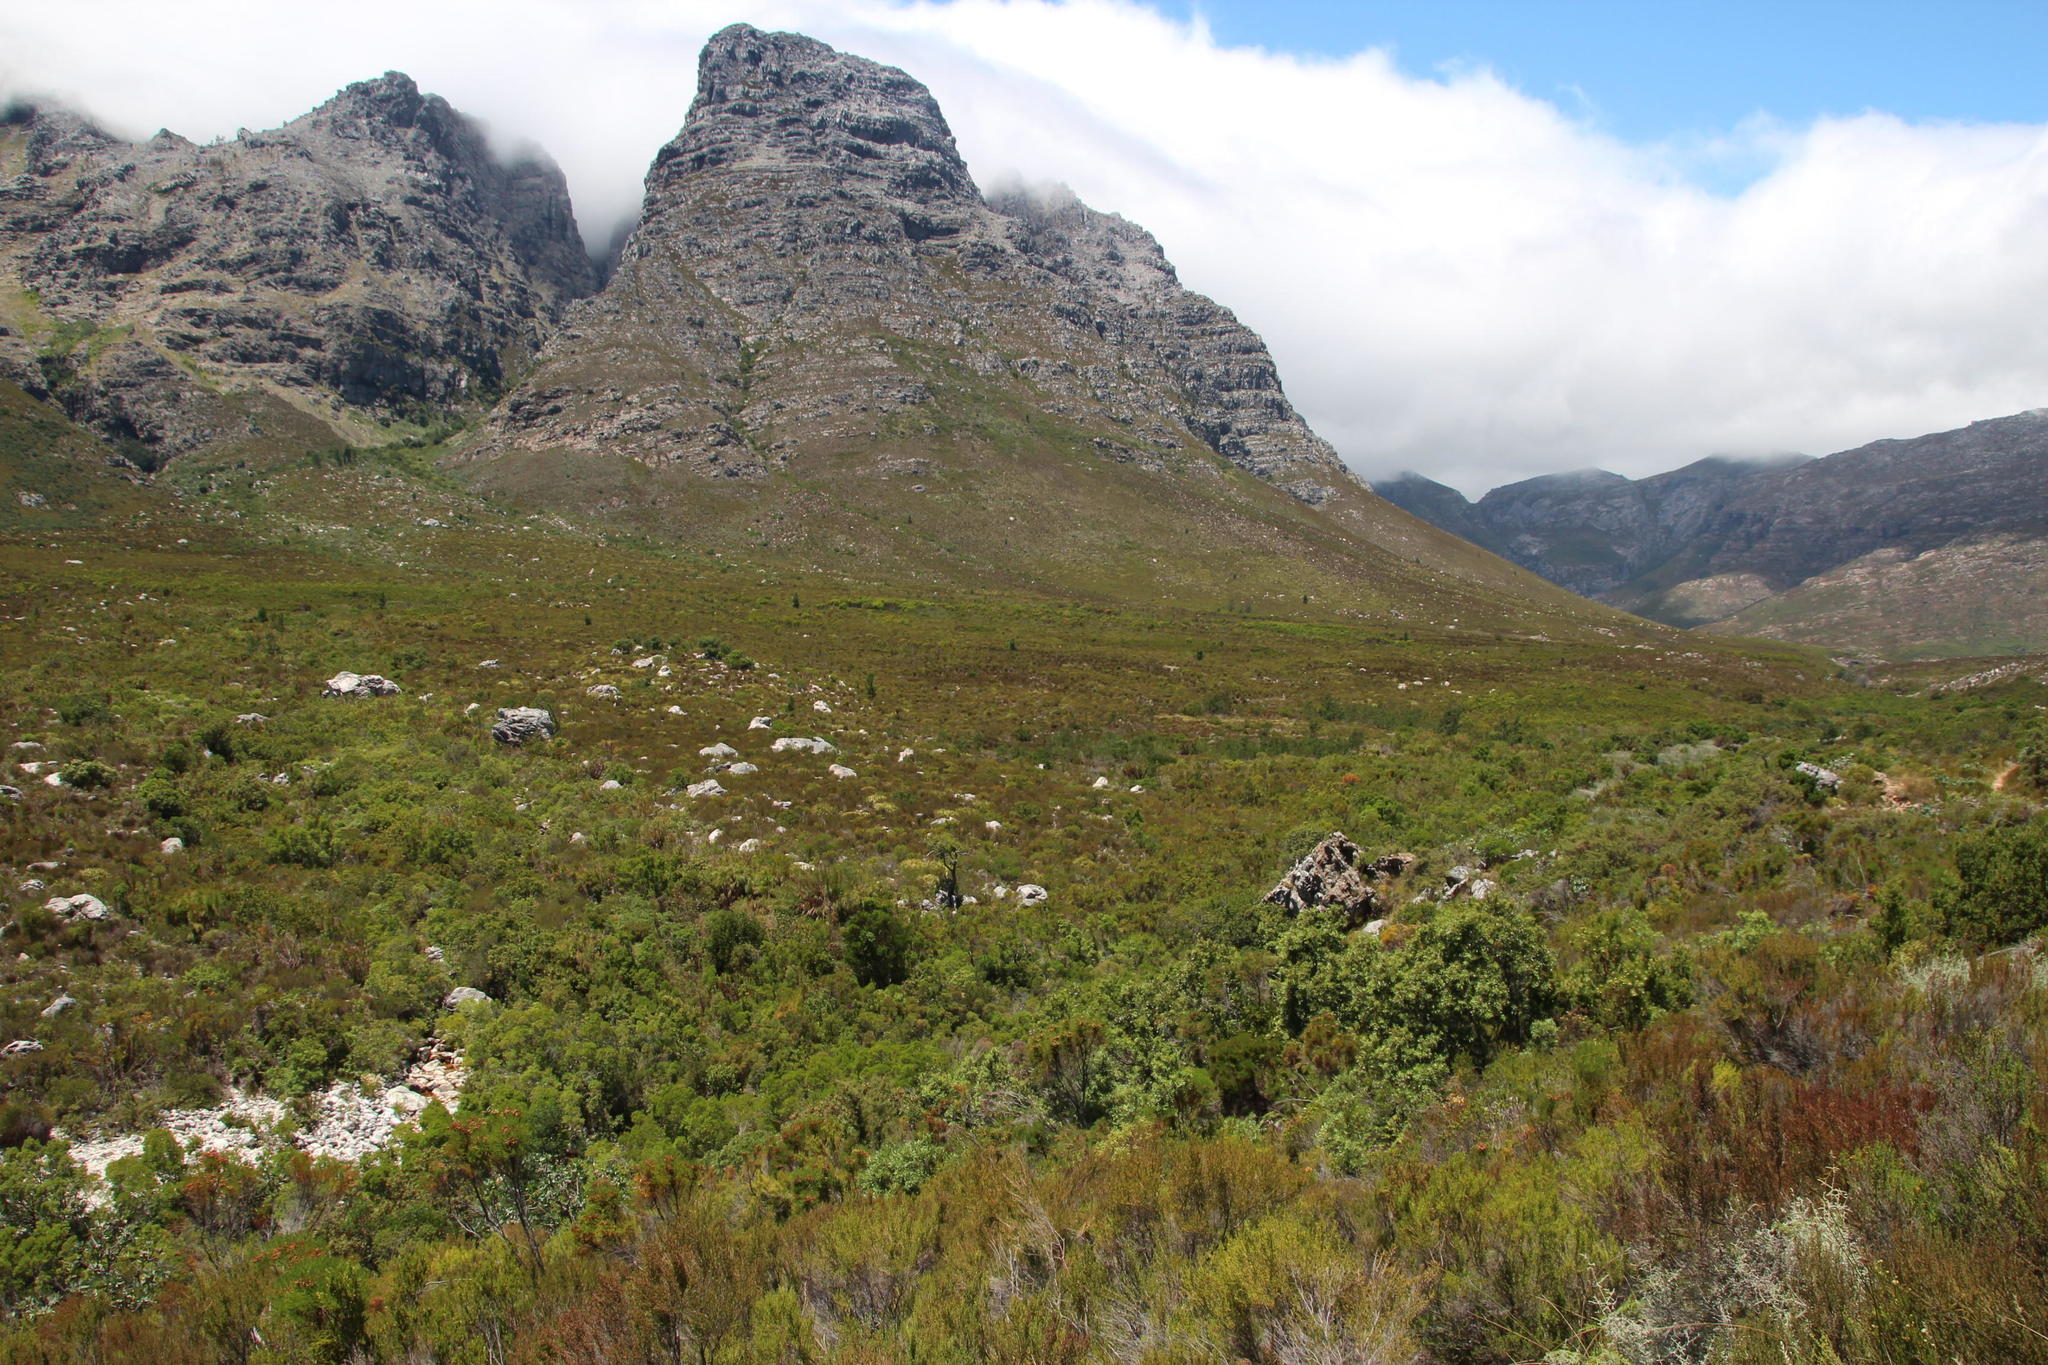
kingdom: Plantae
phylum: Tracheophyta
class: Pinopsida
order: Pinales
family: Pinaceae
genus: Pinus
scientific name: Pinus pinaster
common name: Maritime pine
